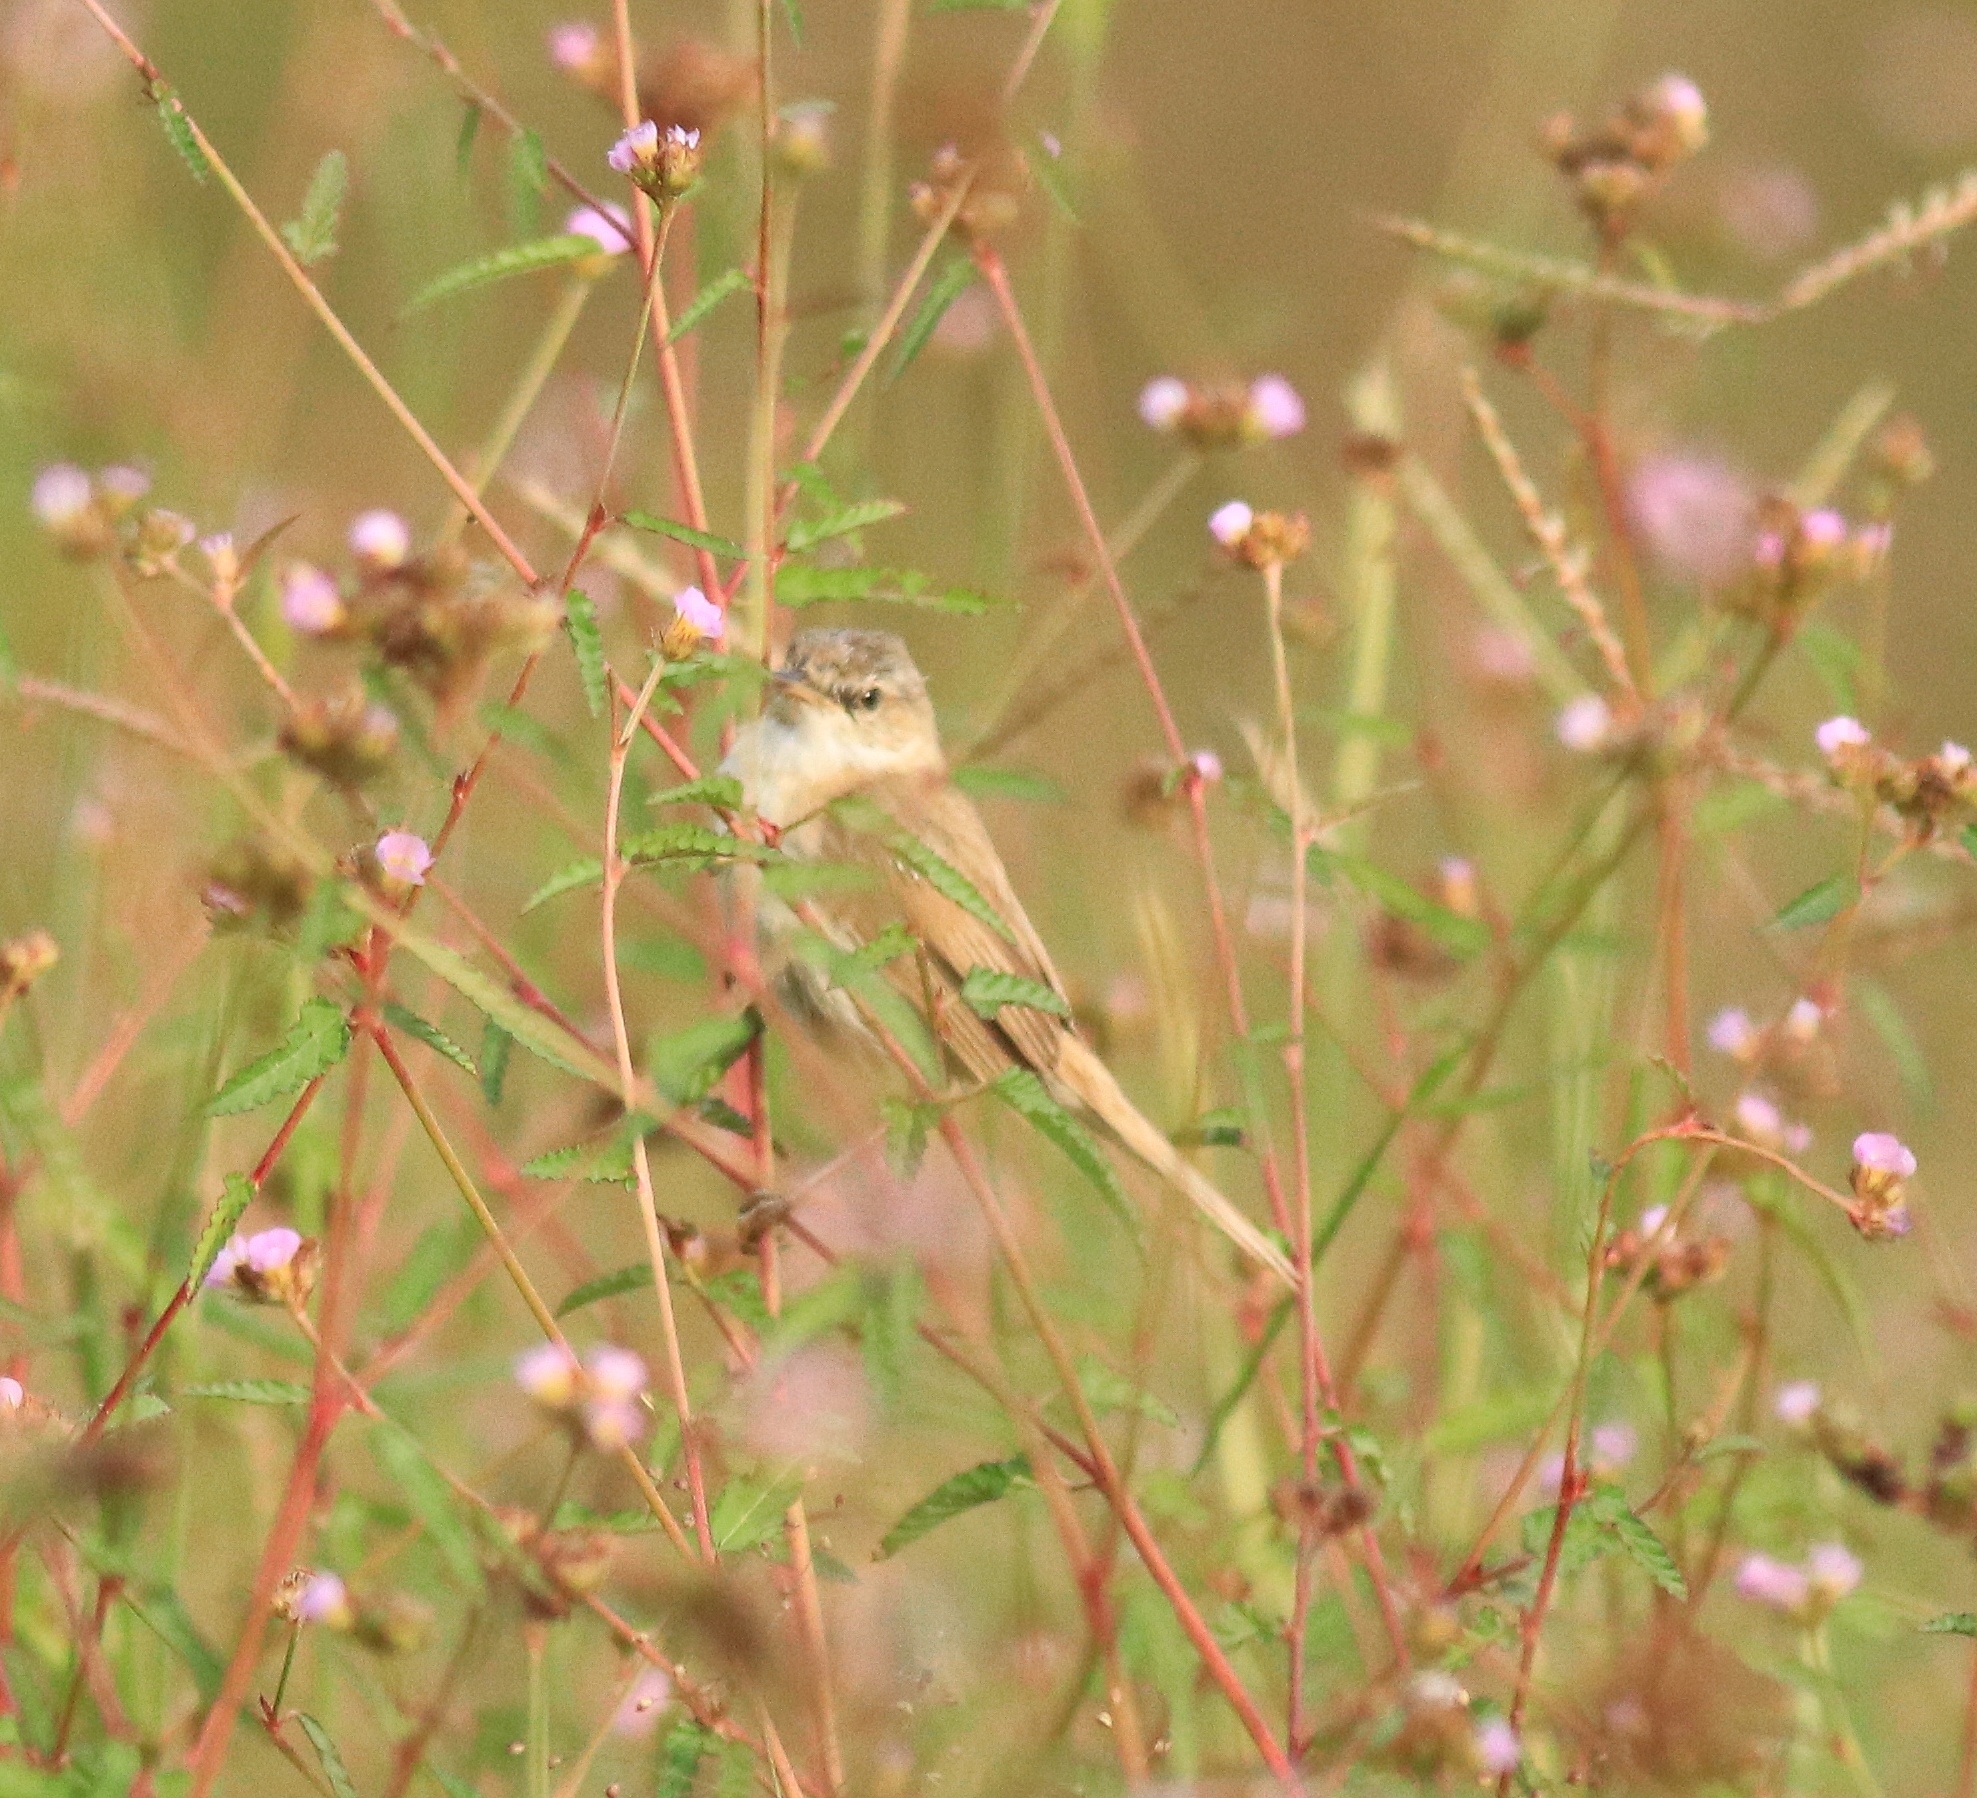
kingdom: Animalia
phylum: Chordata
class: Aves
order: Passeriformes
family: Acrocephalidae
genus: Acrocephalus
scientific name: Acrocephalus agricola
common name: Paddyfield warbler
